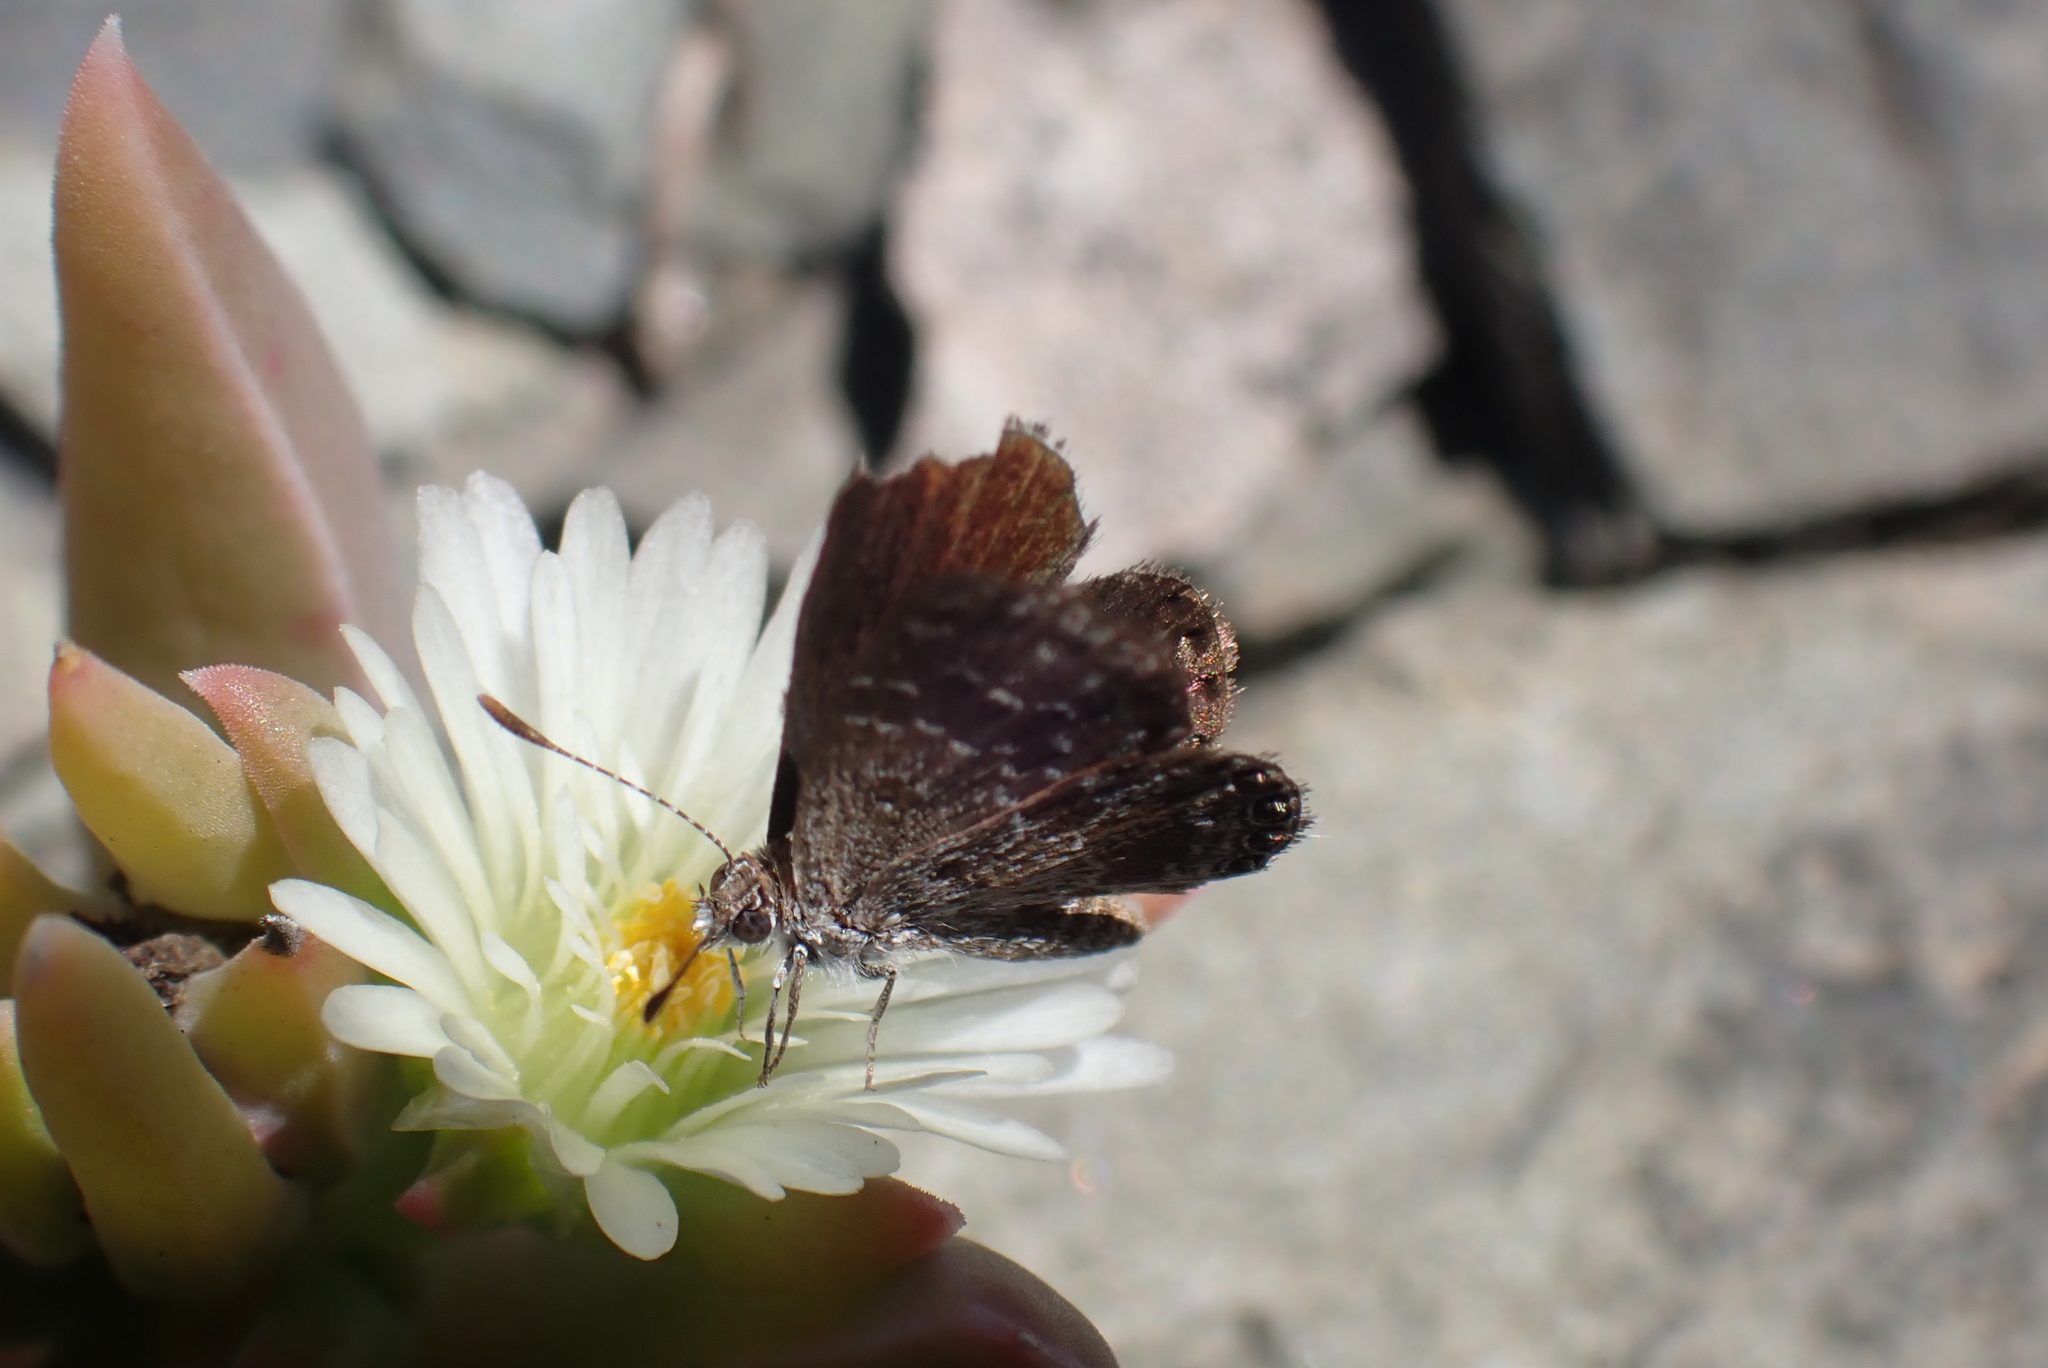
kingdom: Animalia
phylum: Arthropoda
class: Insecta
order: Lepidoptera
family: Lycaenidae
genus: Oraidium
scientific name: Oraidium barberae
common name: Dwarf blue
